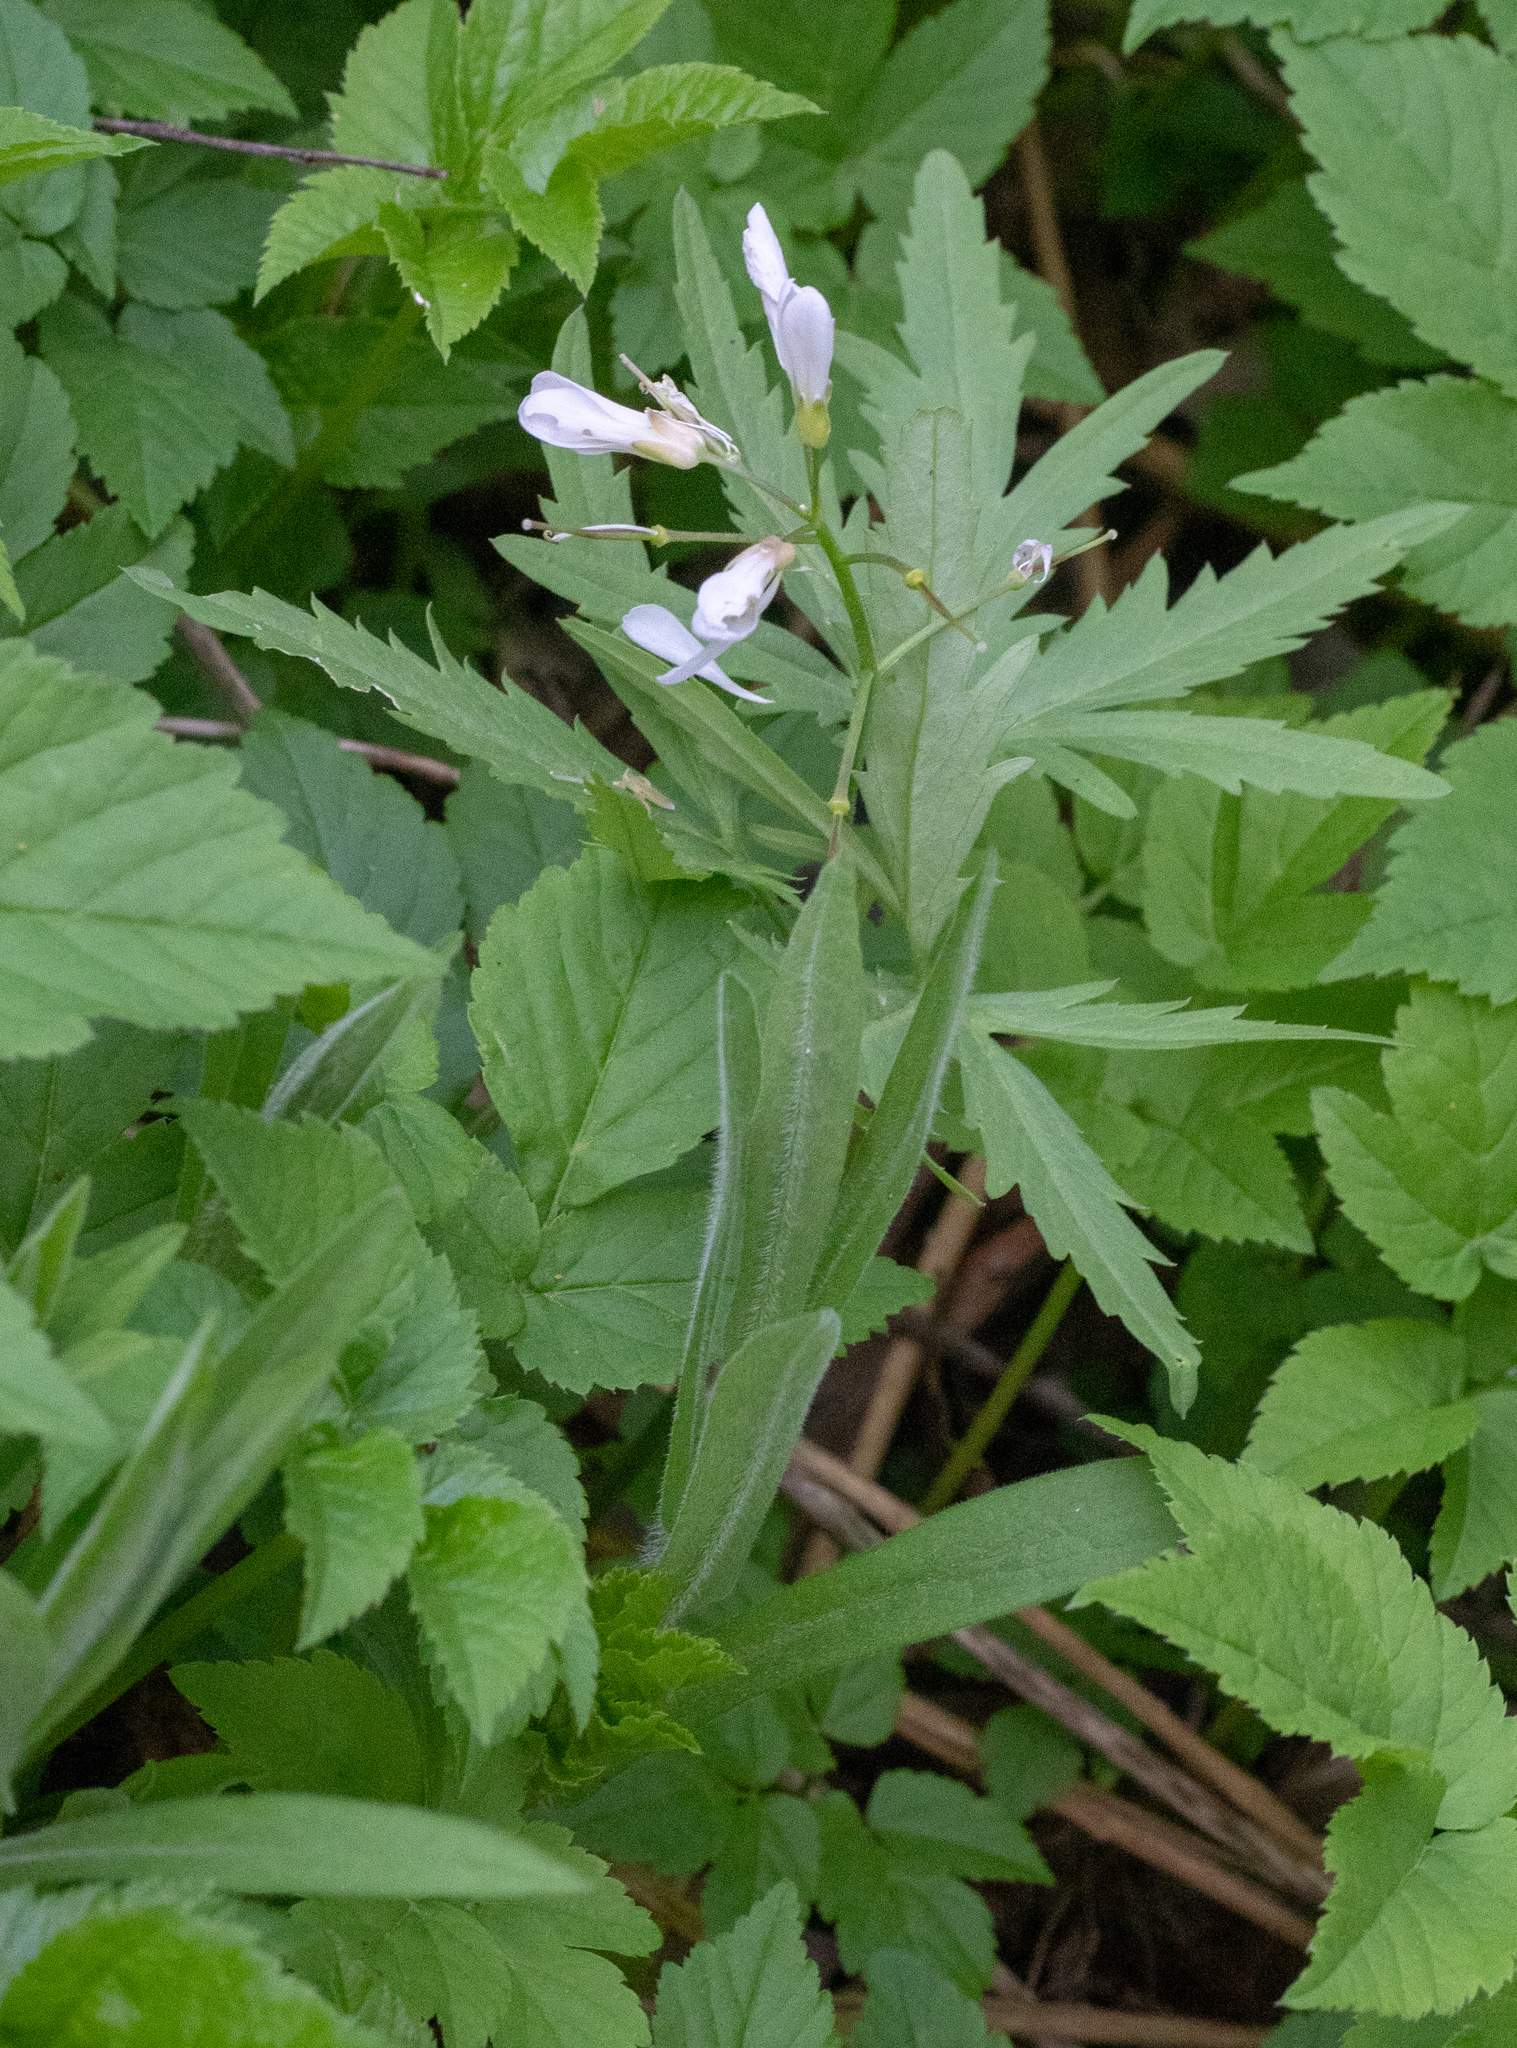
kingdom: Plantae
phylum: Tracheophyta
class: Magnoliopsida
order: Brassicales
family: Brassicaceae
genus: Cardamine
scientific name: Cardamine concatenata
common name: Cut-leaf toothcup
